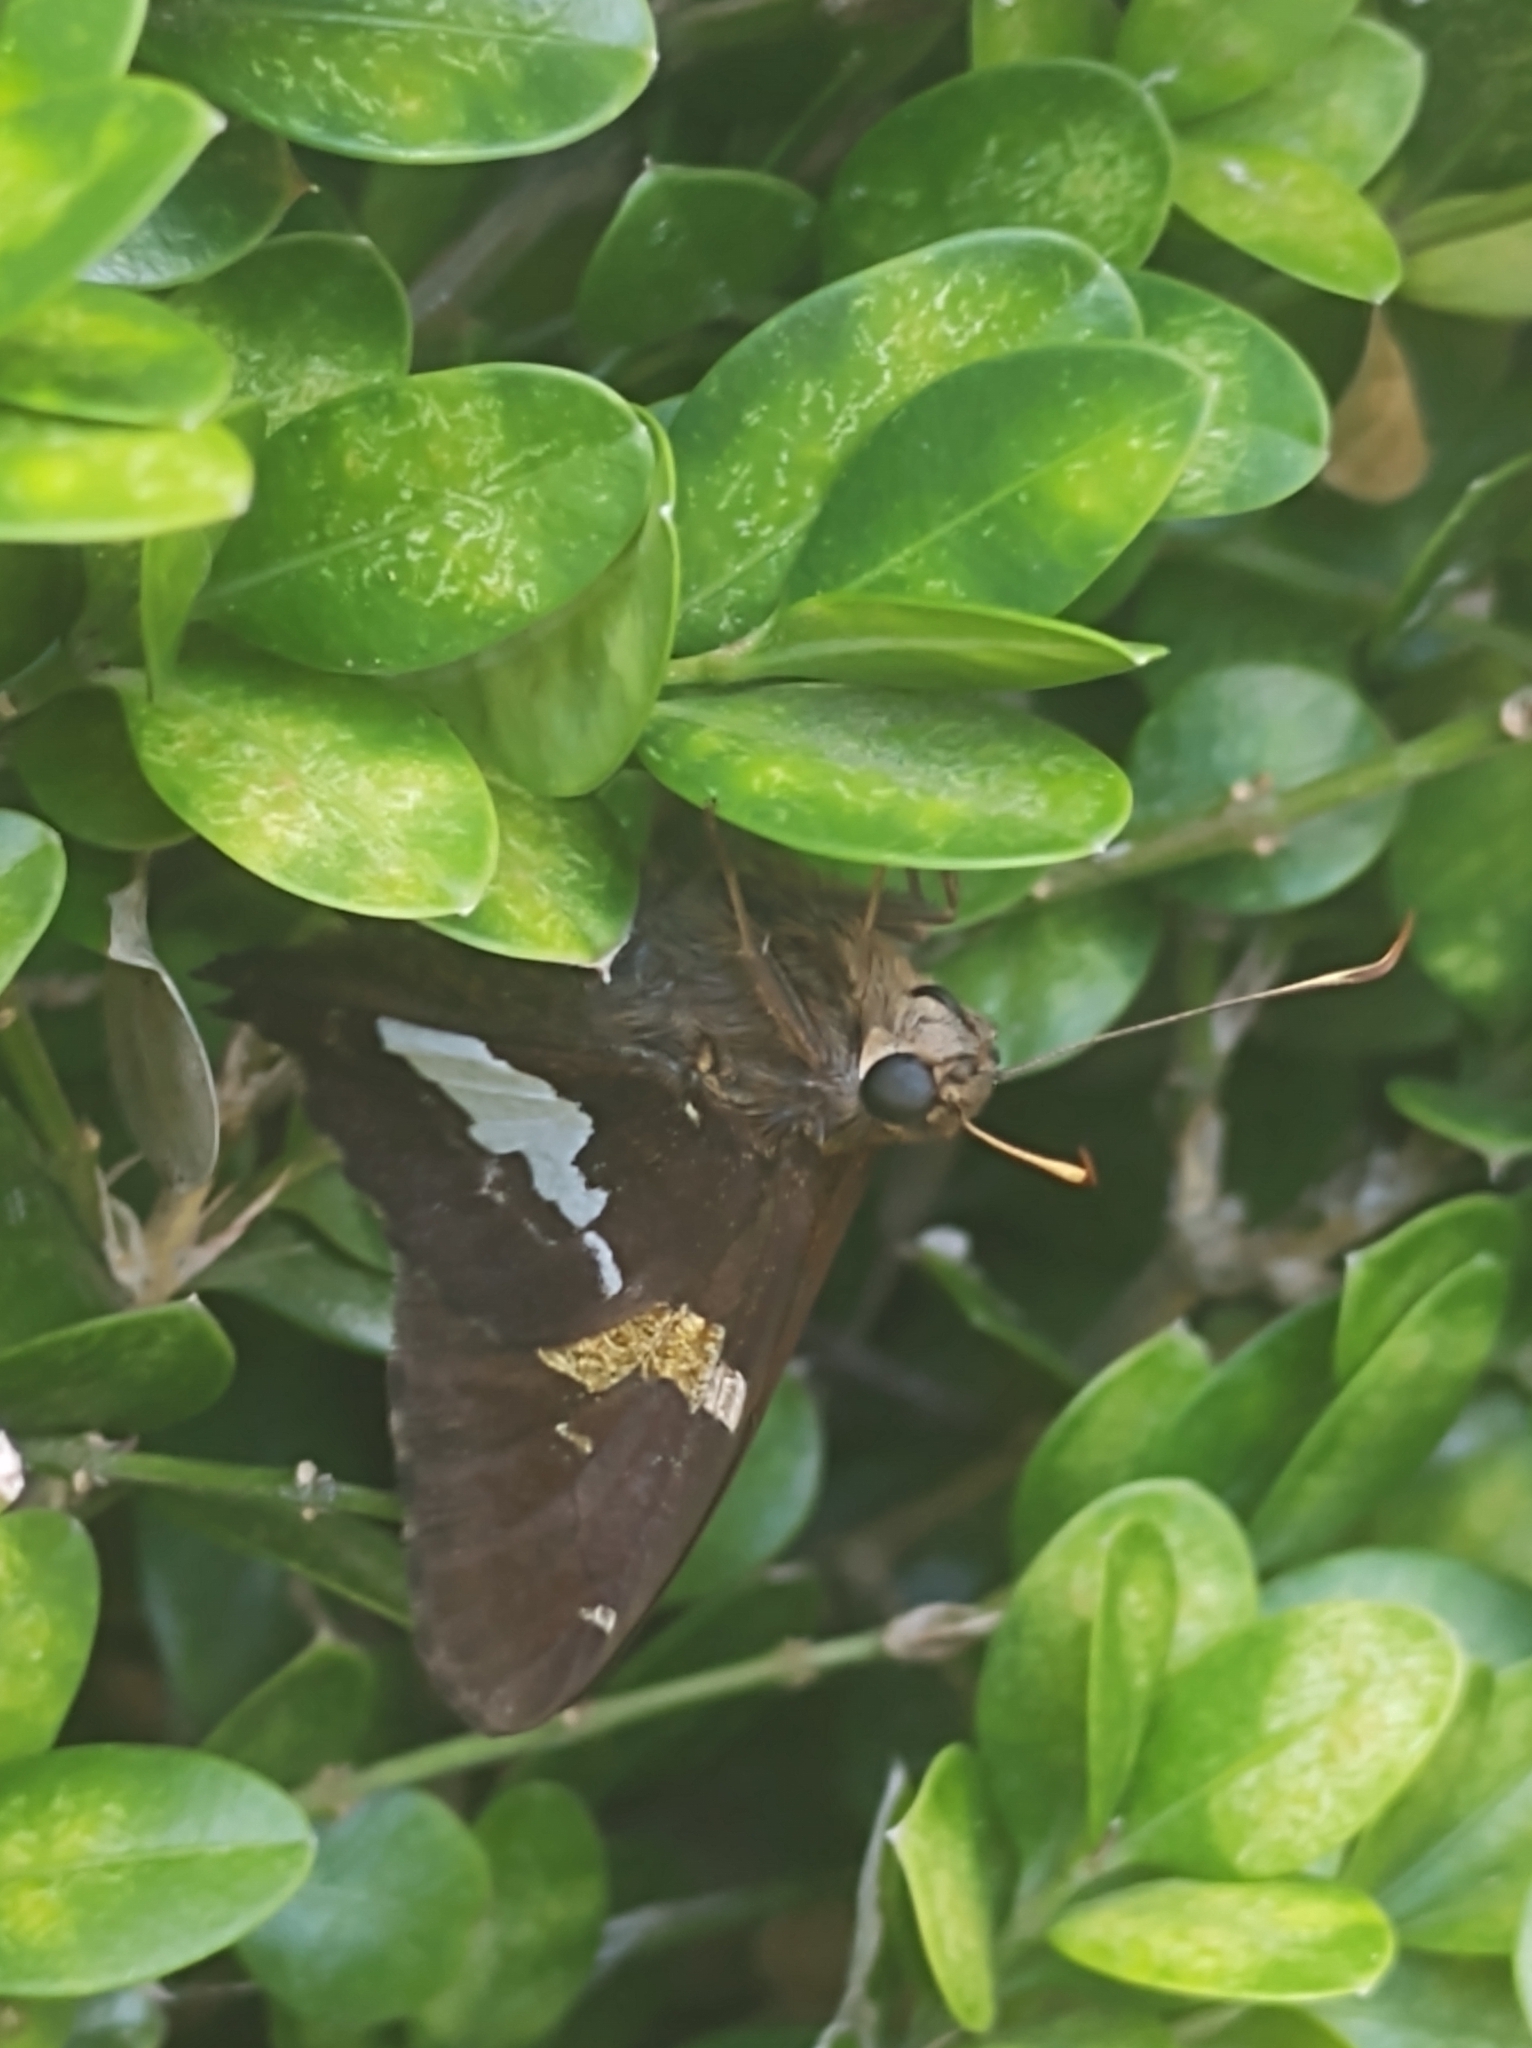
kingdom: Animalia
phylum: Arthropoda
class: Insecta
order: Lepidoptera
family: Hesperiidae
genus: Epargyreus
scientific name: Epargyreus clarus
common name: Silver-spotted skipper
